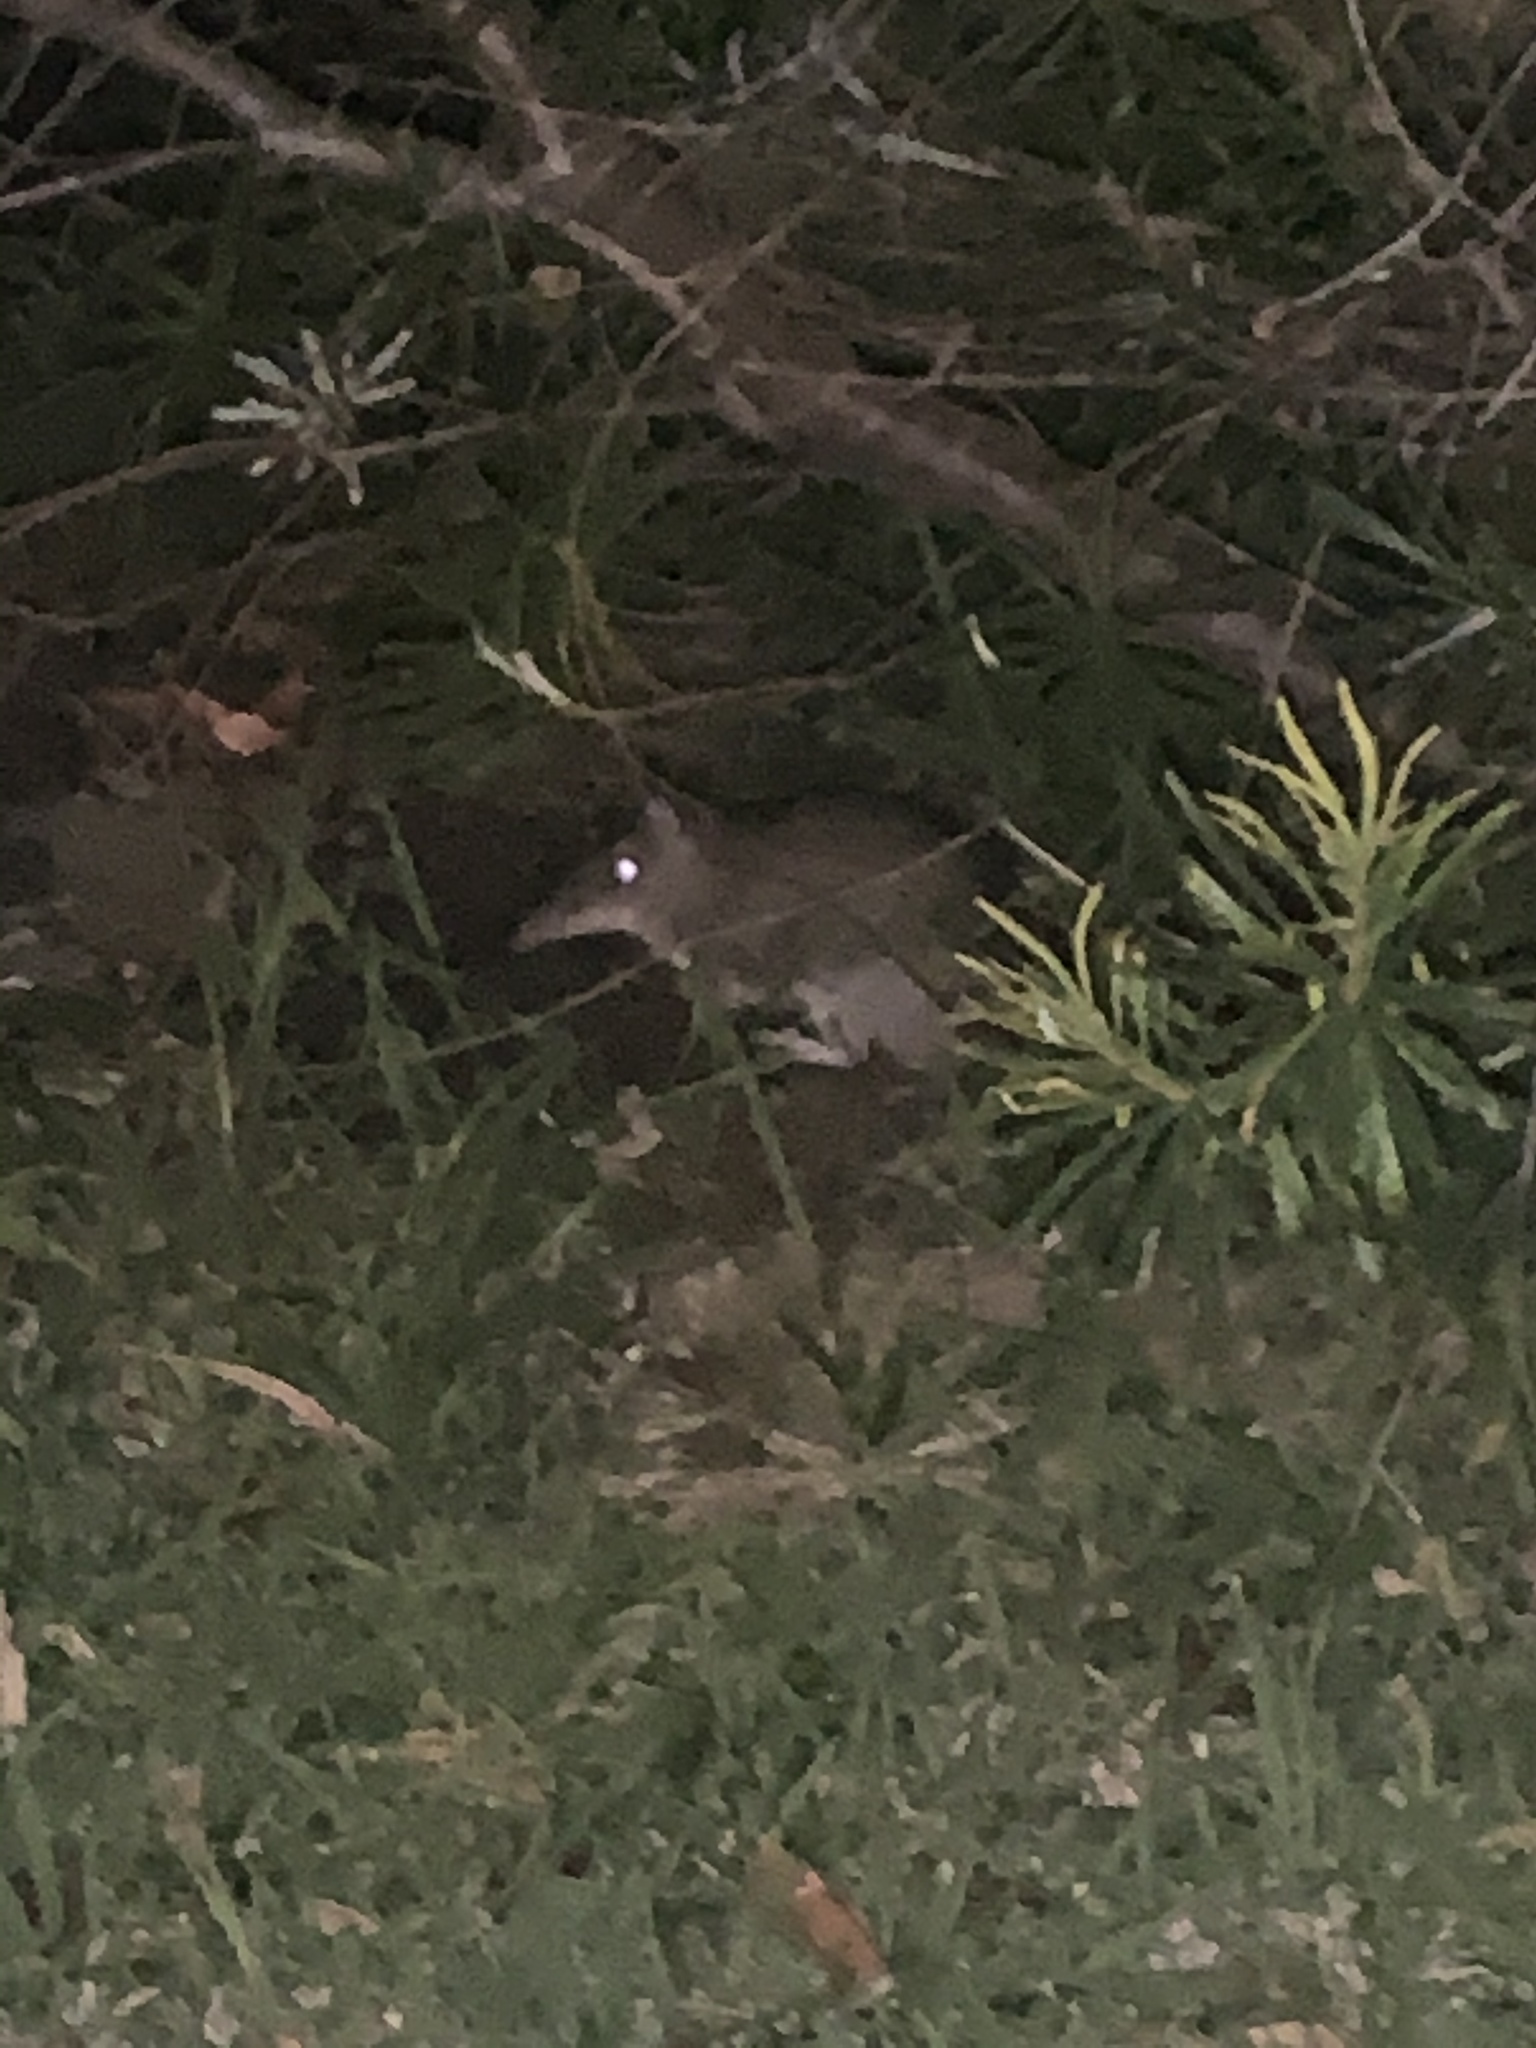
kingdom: Animalia
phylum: Chordata
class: Mammalia
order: Peramelemorphia
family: Peramelidae
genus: Perameles
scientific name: Perameles nasuta
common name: Long-nosed bandicoot
